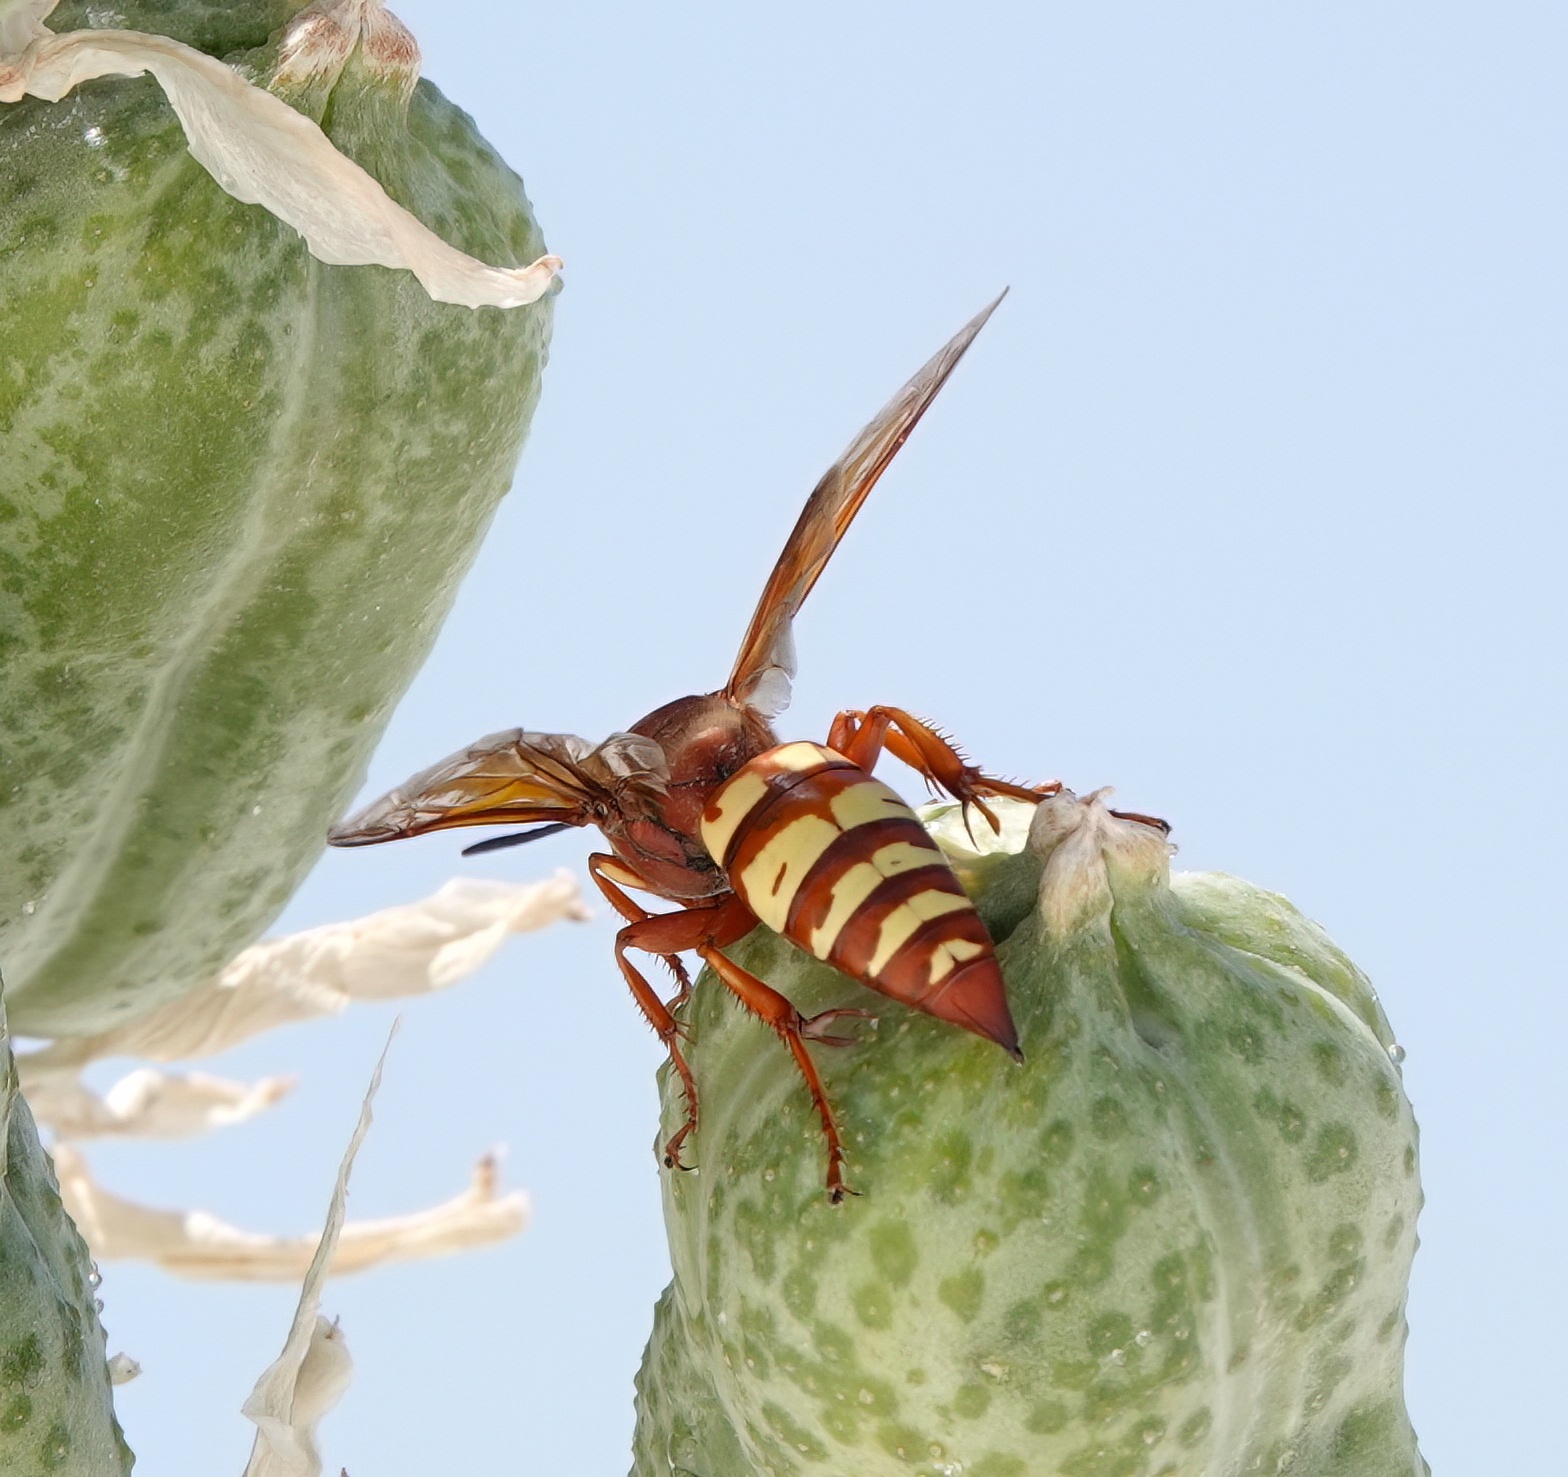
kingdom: Animalia
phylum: Arthropoda
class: Insecta
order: Hymenoptera
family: Crabronidae
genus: Sphecius
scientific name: Sphecius grandis
